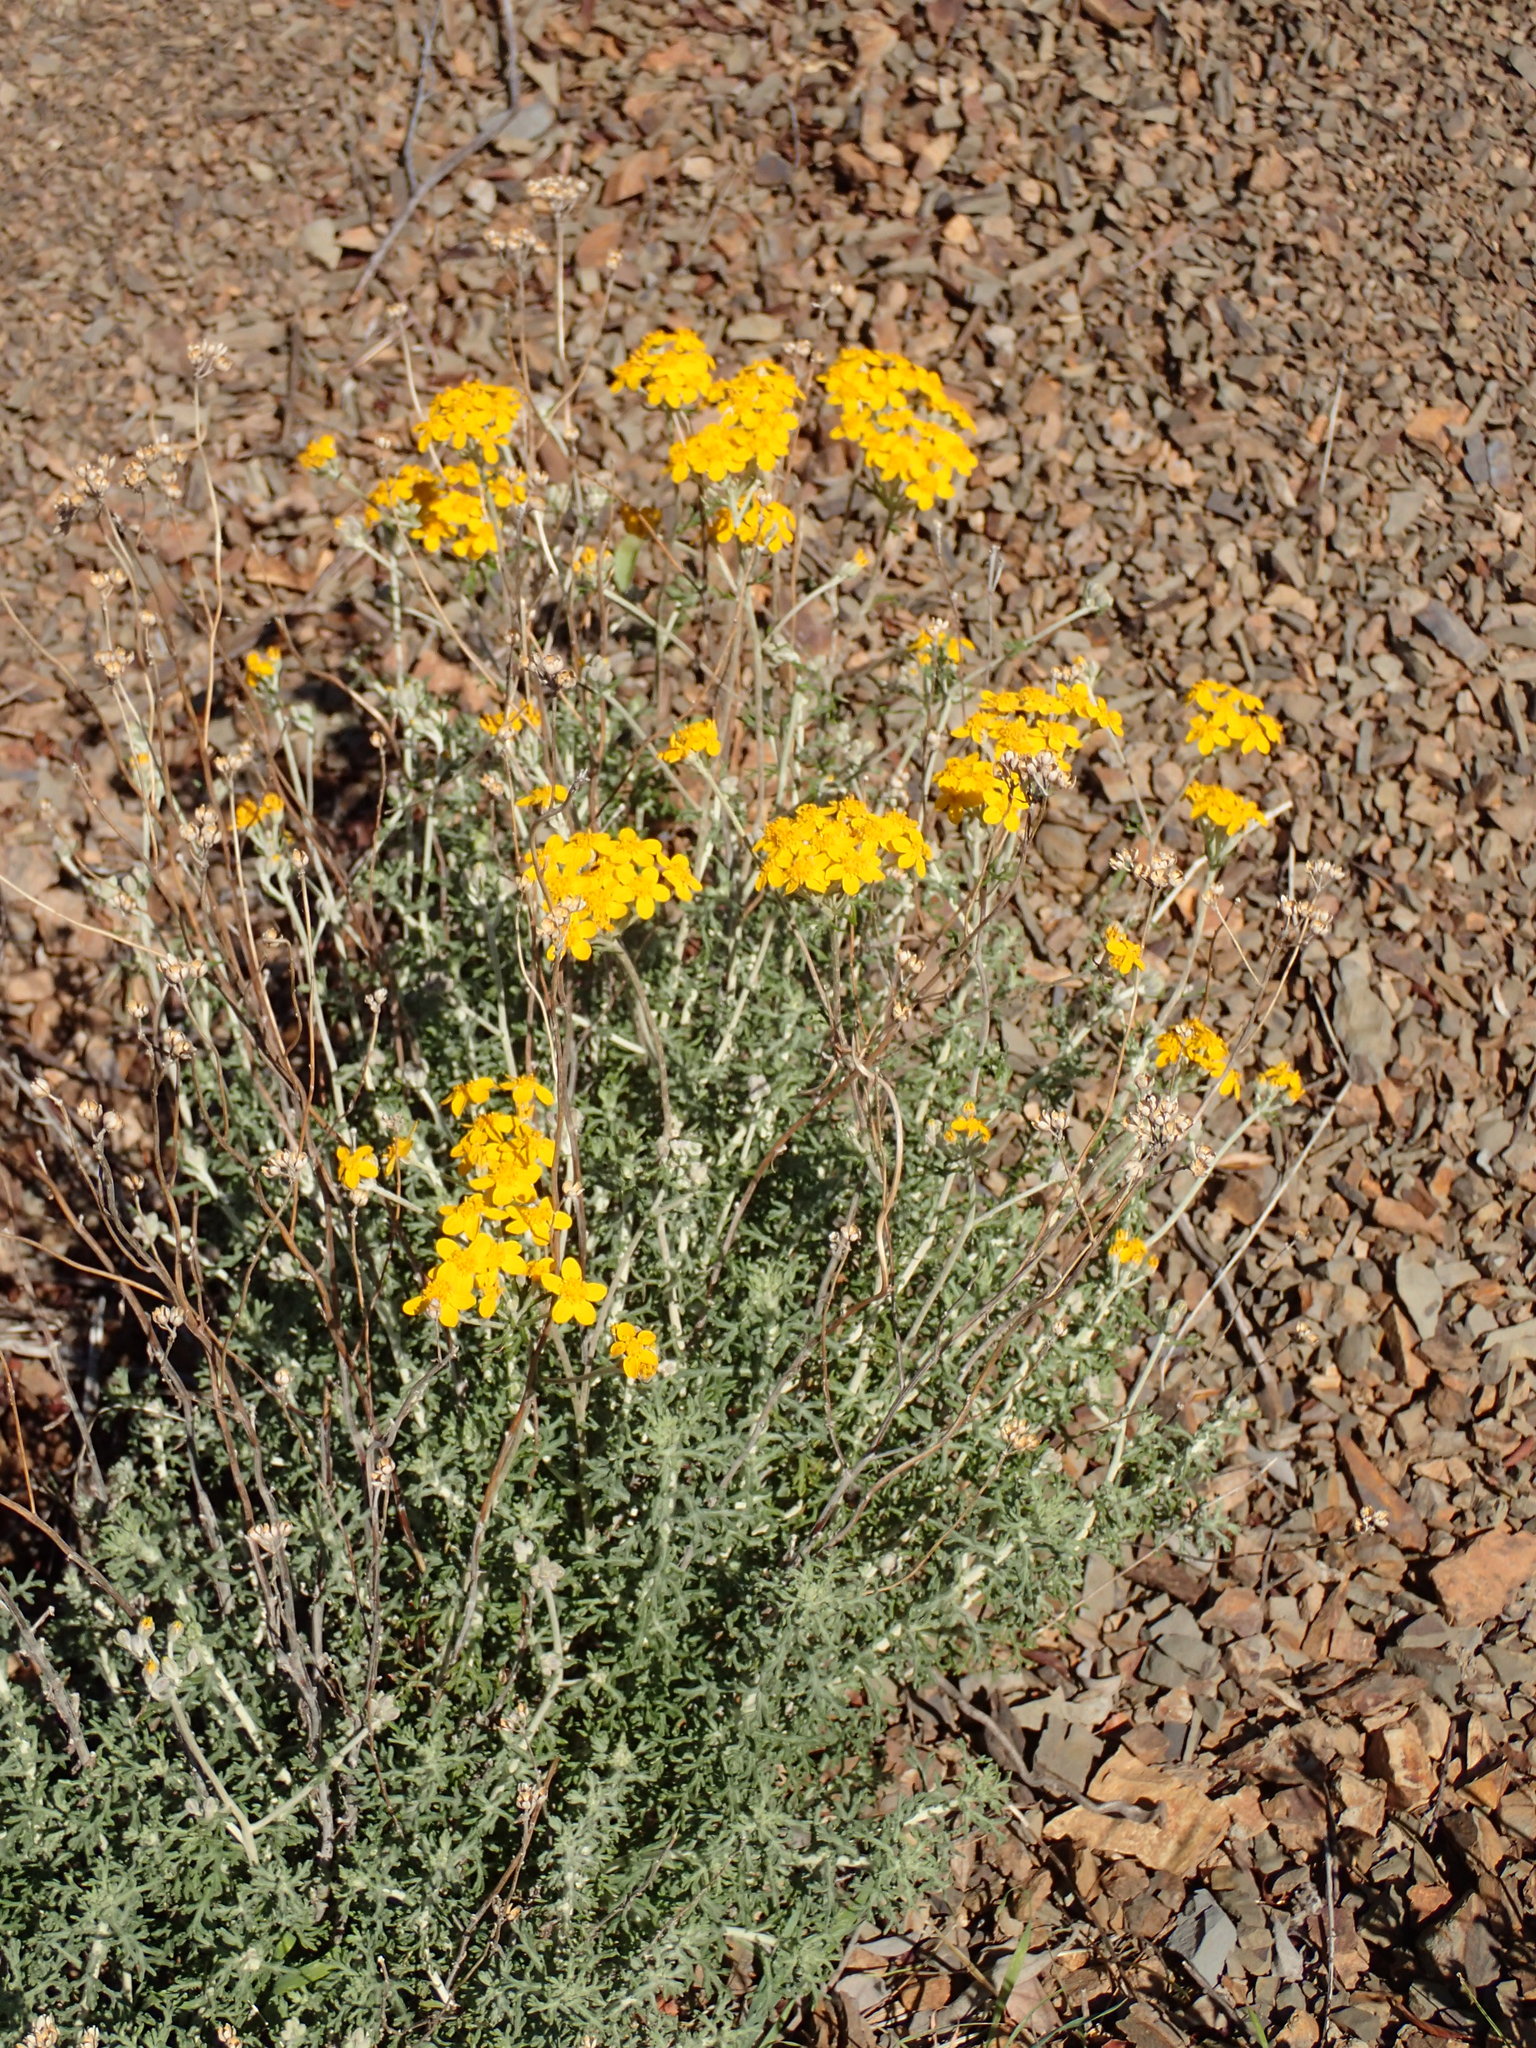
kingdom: Plantae
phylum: Tracheophyta
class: Magnoliopsida
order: Asterales
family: Asteraceae
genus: Eriophyllum
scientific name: Eriophyllum confertiflorum
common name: Golden-yarrow
